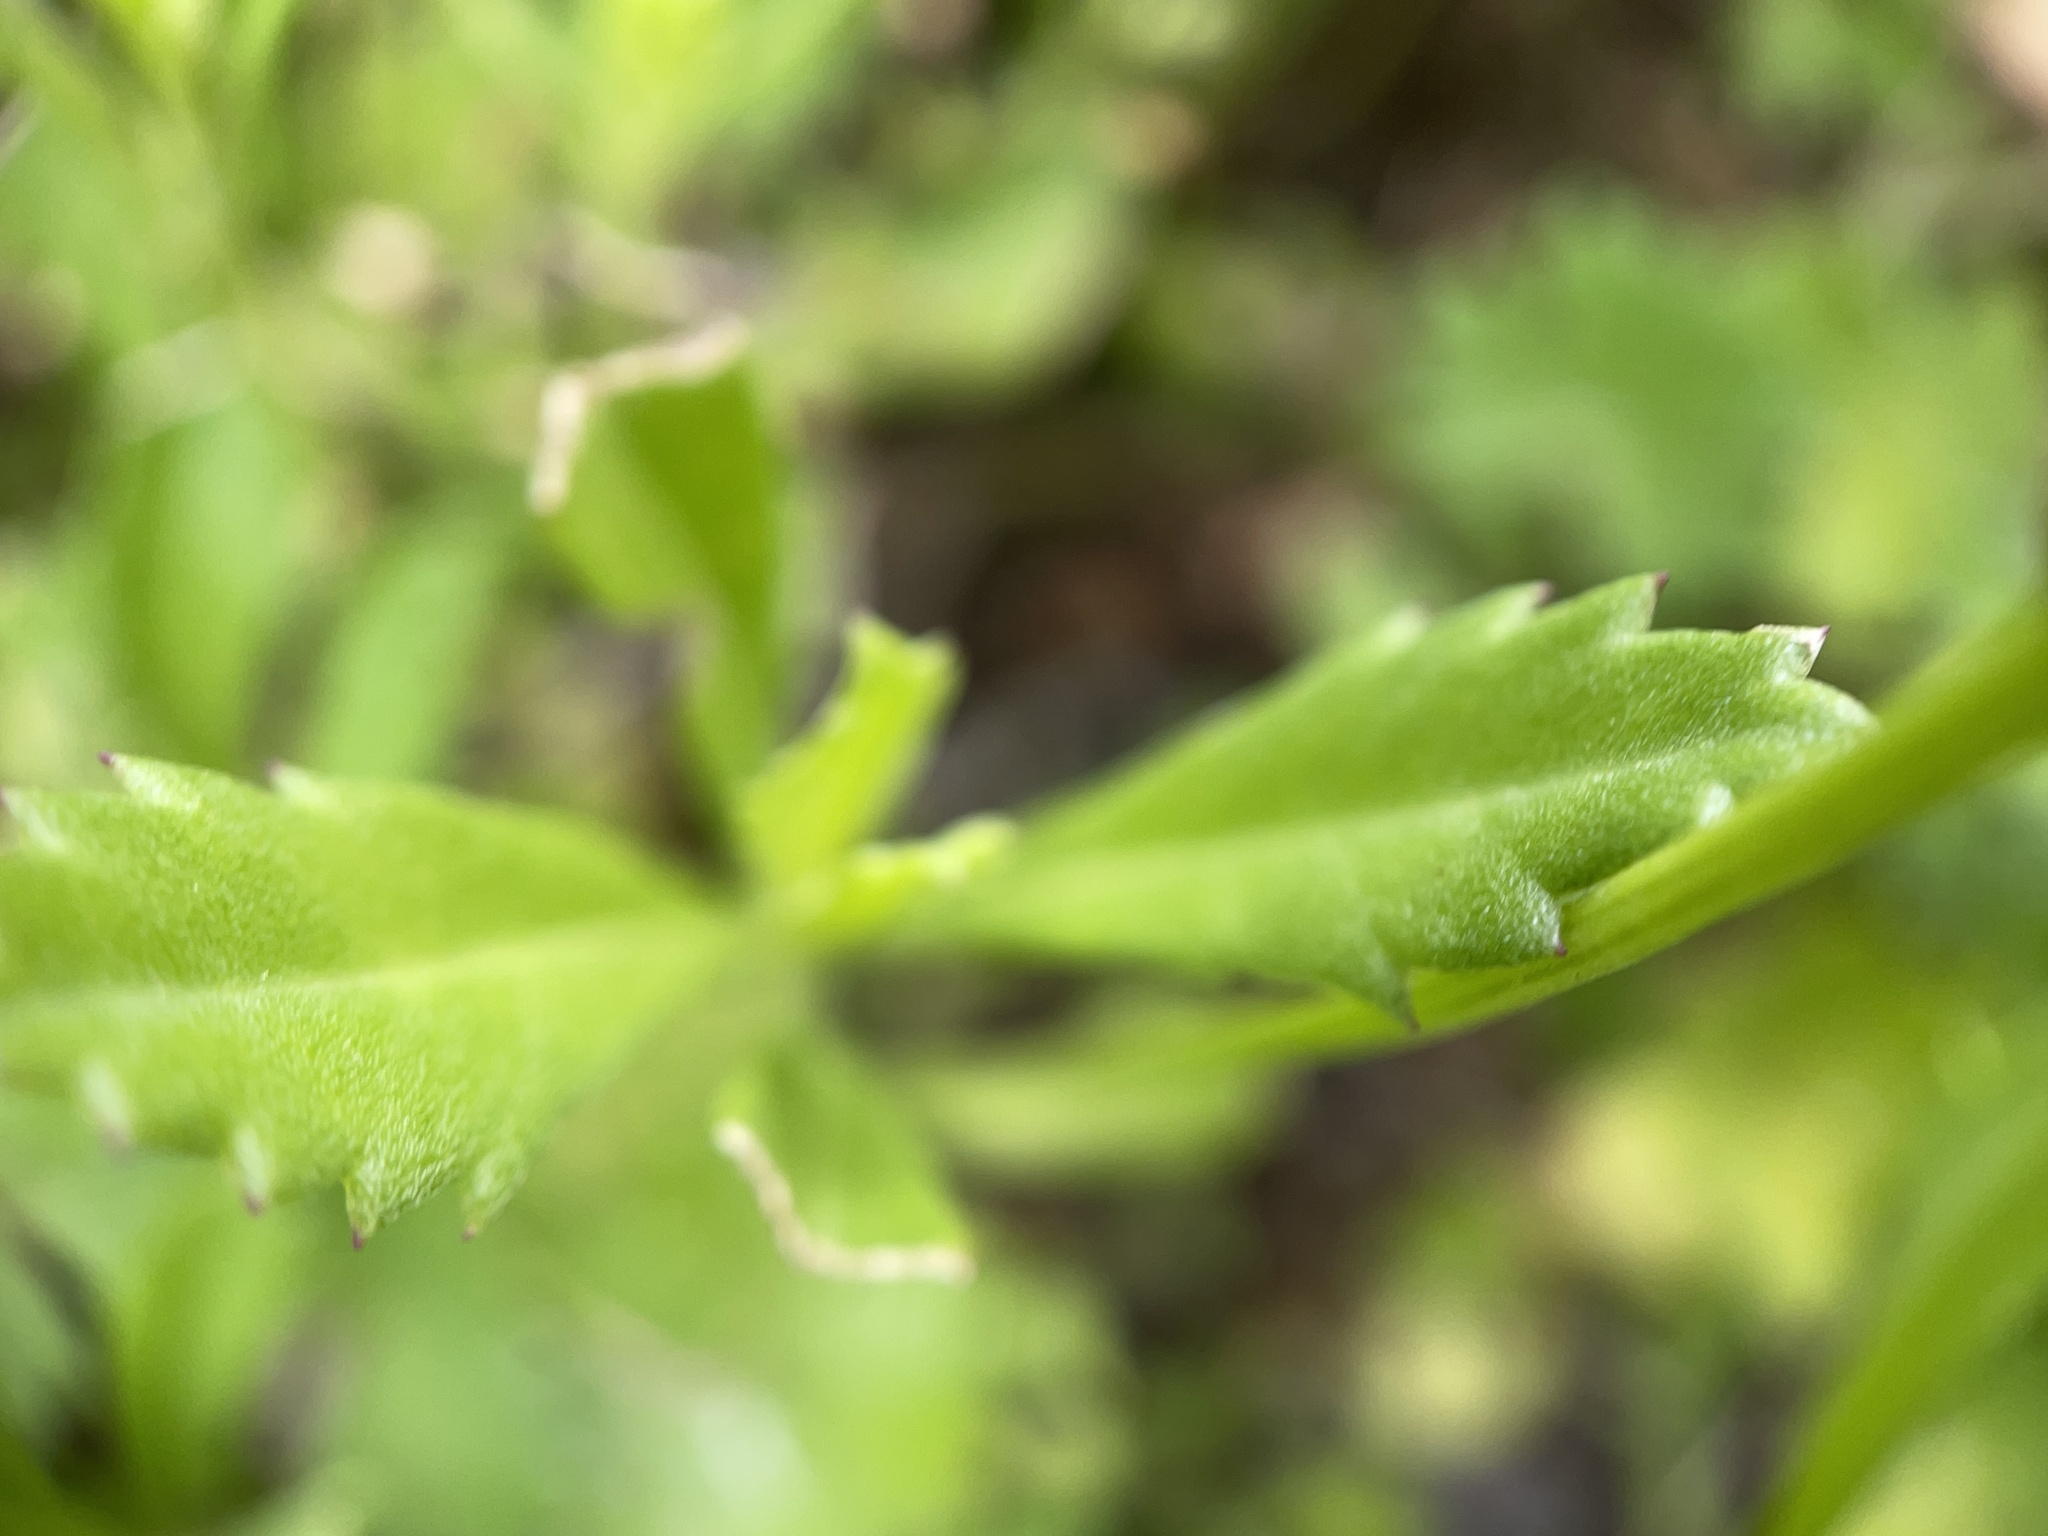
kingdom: Plantae
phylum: Tracheophyta
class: Magnoliopsida
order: Lamiales
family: Verbenaceae
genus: Phyla
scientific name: Phyla nodiflora
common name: Frogfruit
